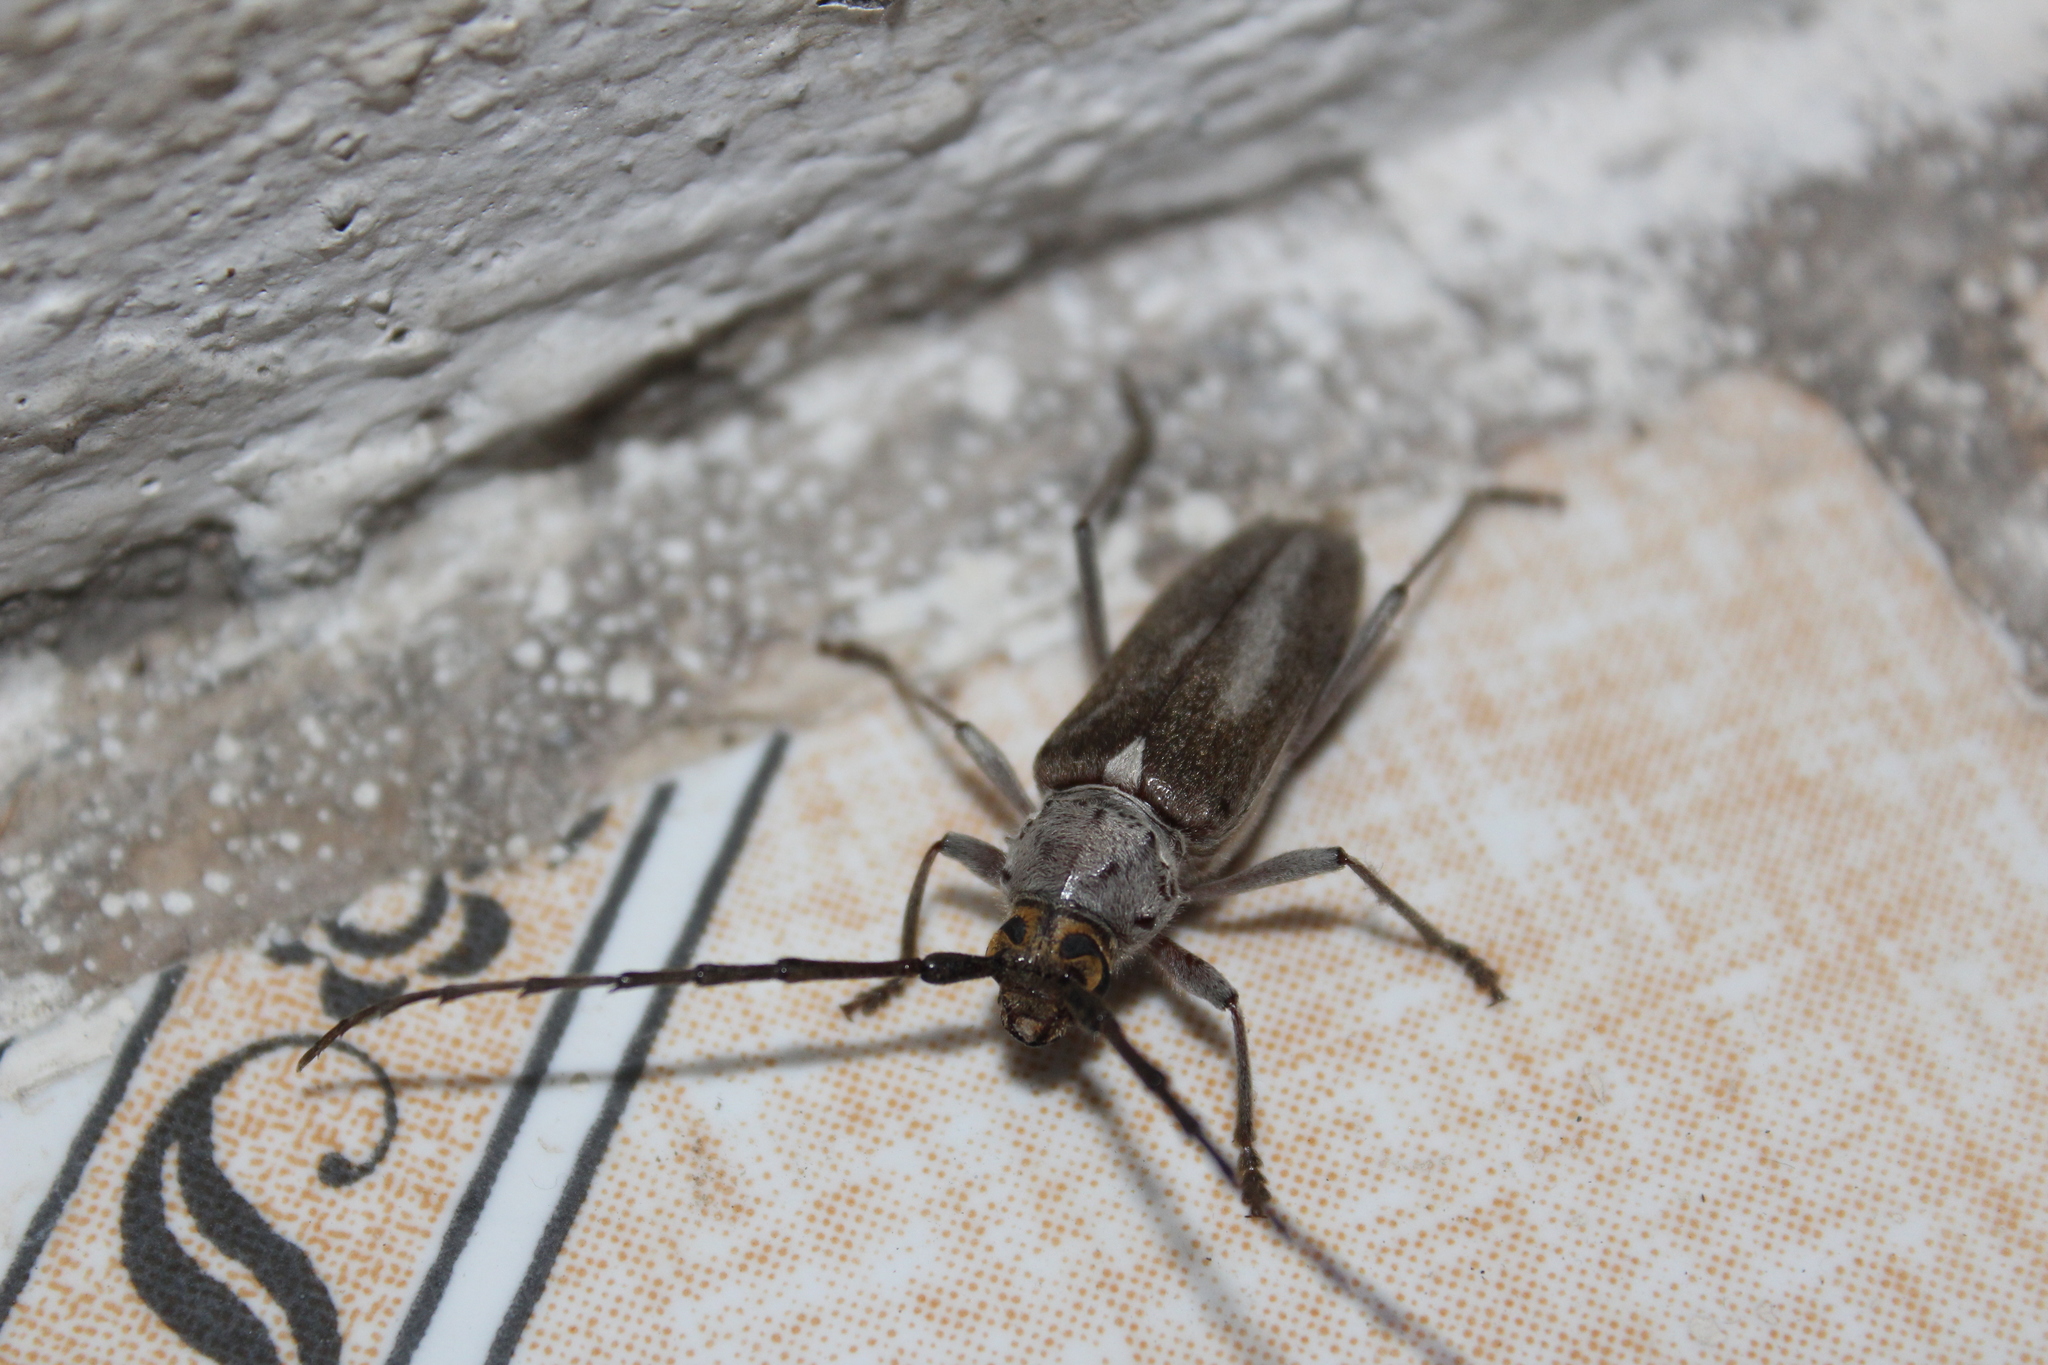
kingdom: Animalia
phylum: Arthropoda
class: Insecta
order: Coleoptera
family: Cerambycidae
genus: Gnaphalodes
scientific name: Gnaphalodes trachyderoides
